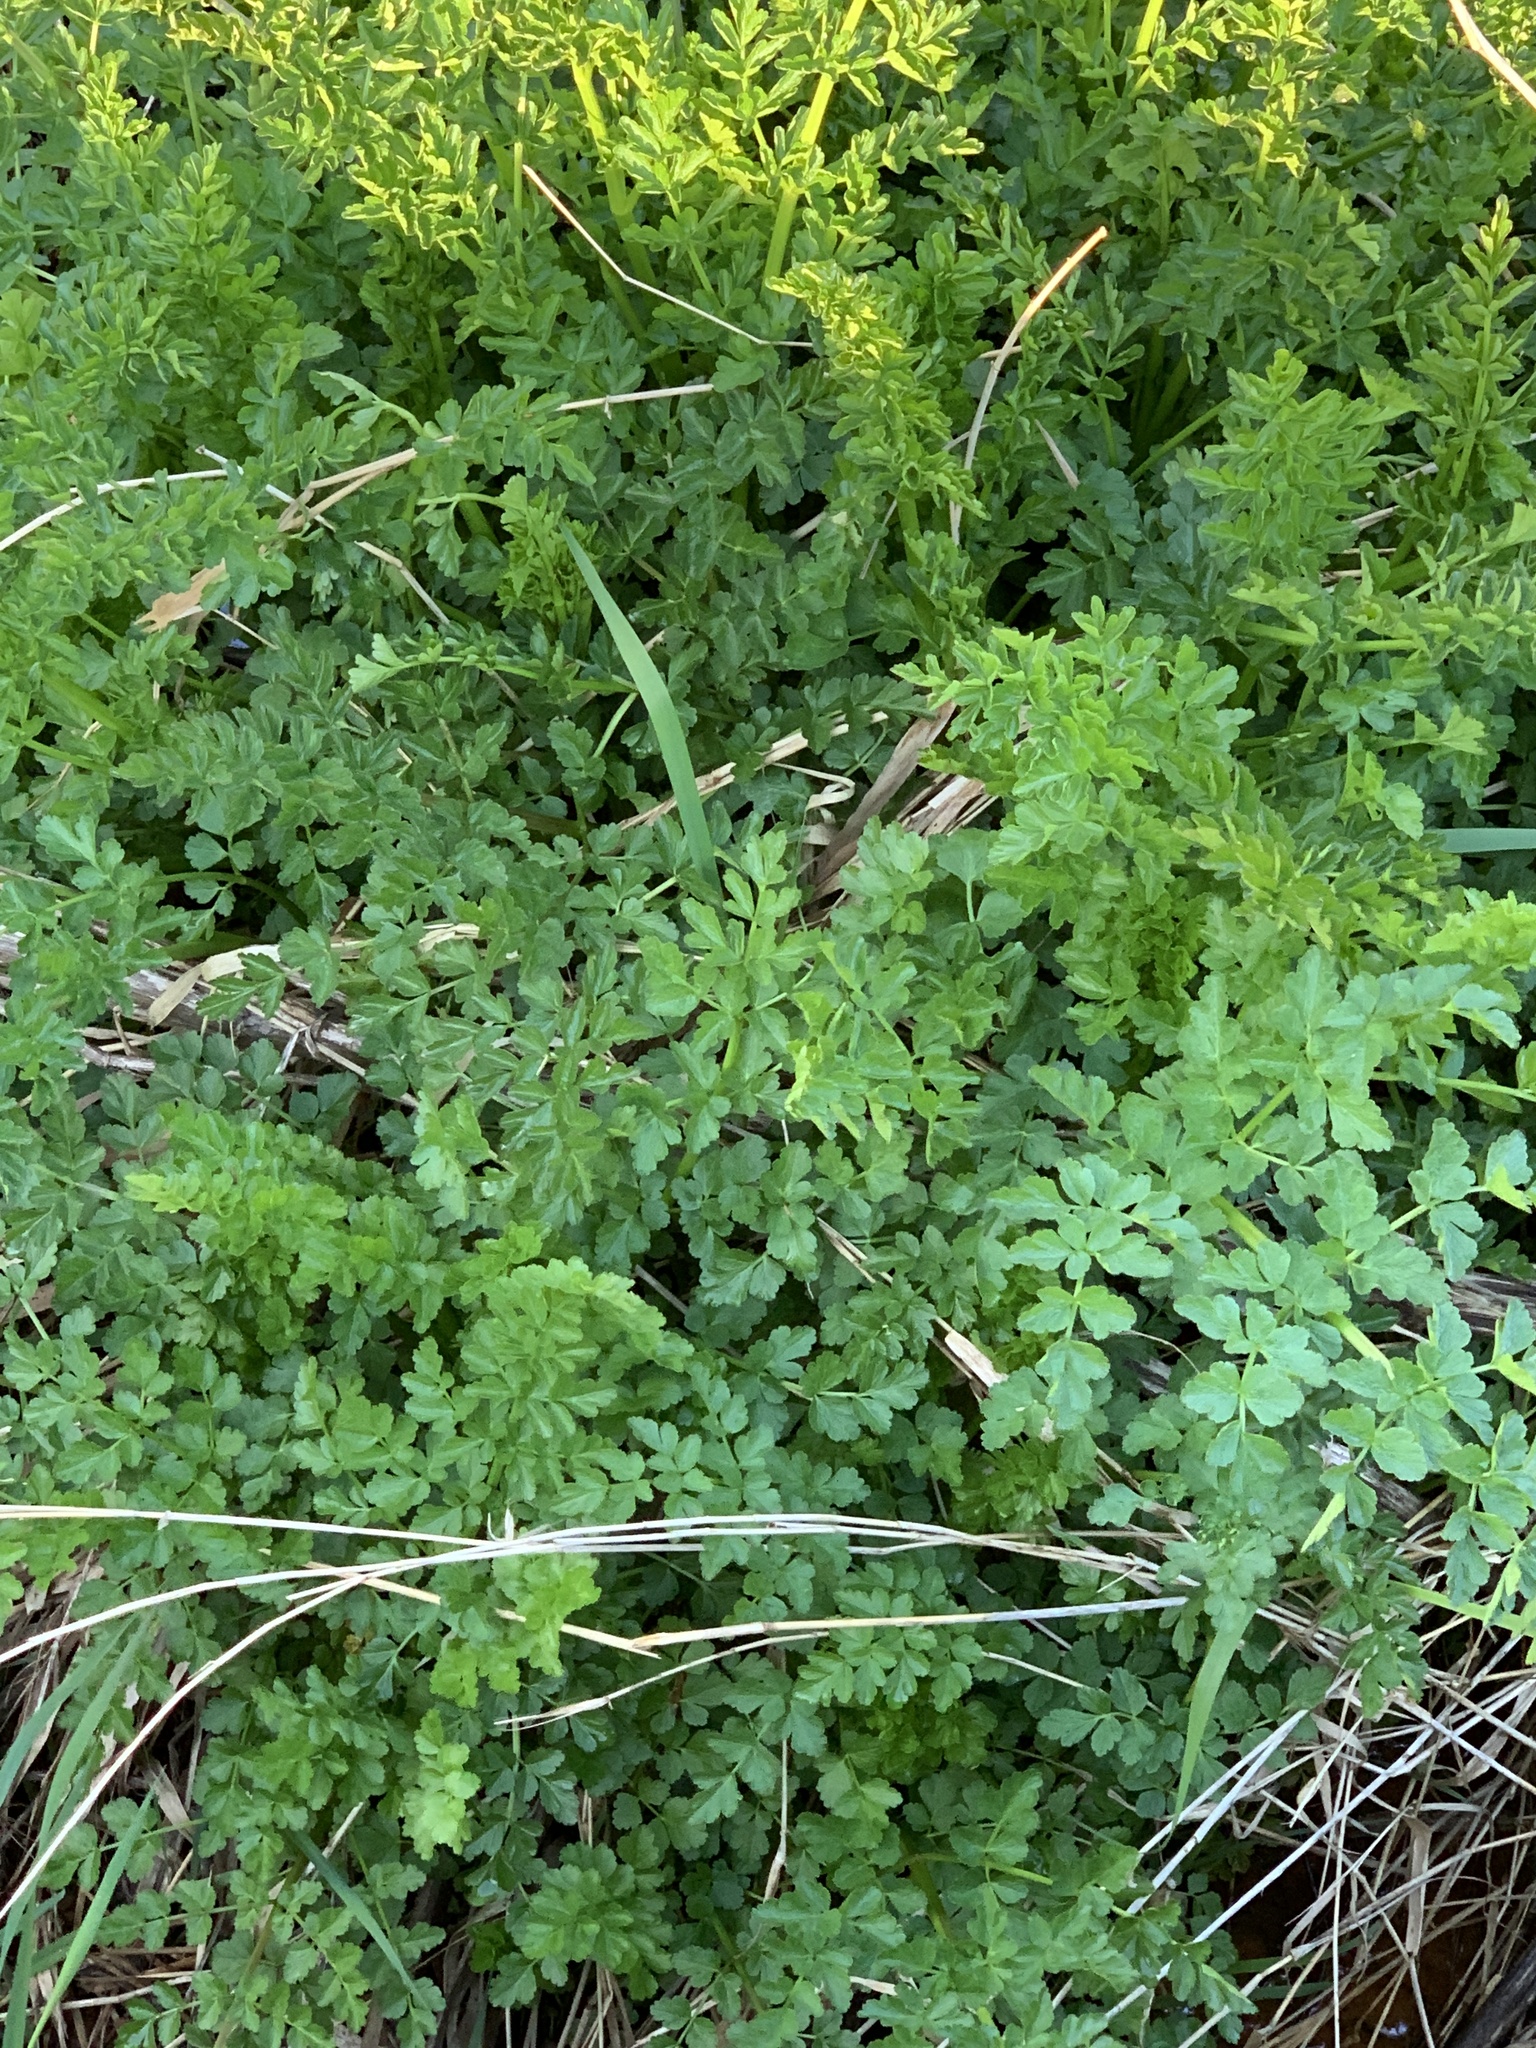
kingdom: Plantae
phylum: Tracheophyta
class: Magnoliopsida
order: Apiales
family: Apiaceae
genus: Oenanthe
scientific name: Oenanthe crocata
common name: Hemlock water-dropwort
